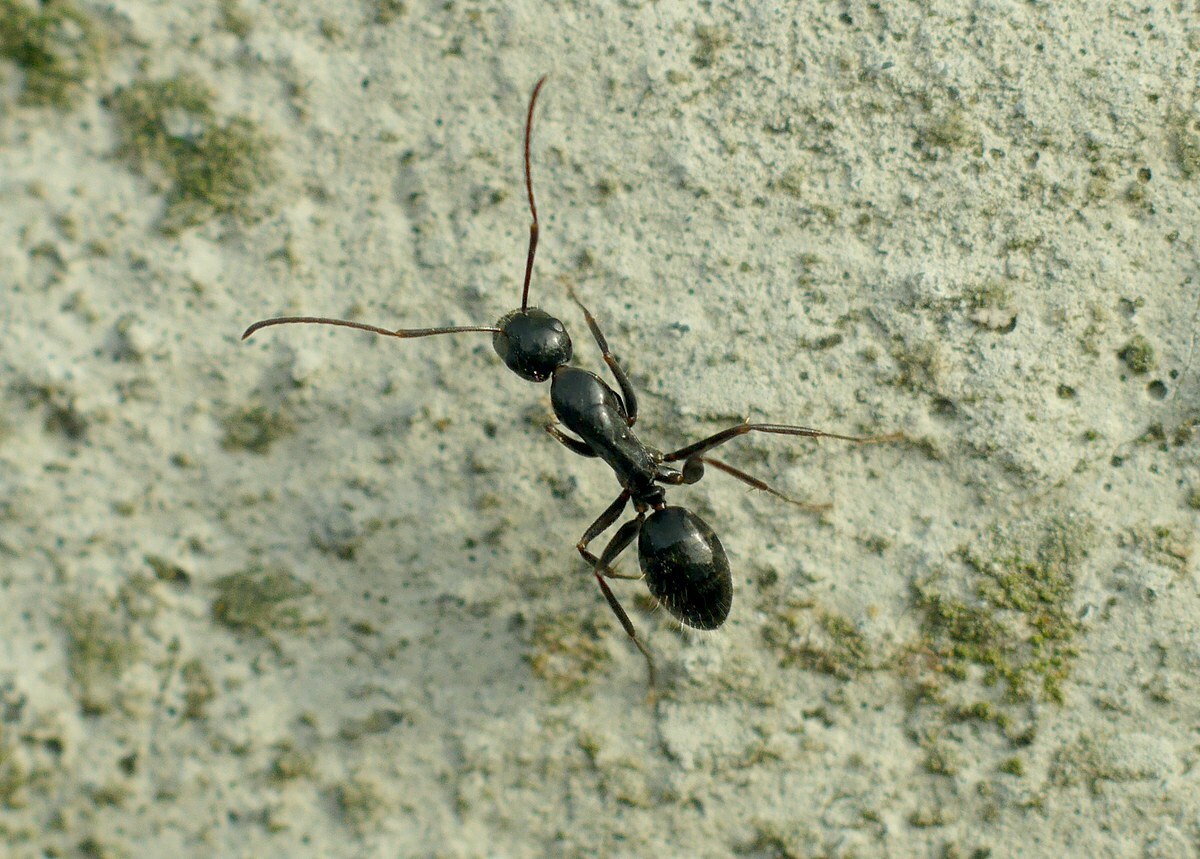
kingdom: Animalia
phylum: Arthropoda
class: Insecta
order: Hymenoptera
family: Formicidae
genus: Camponotus
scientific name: Camponotus aethiops
